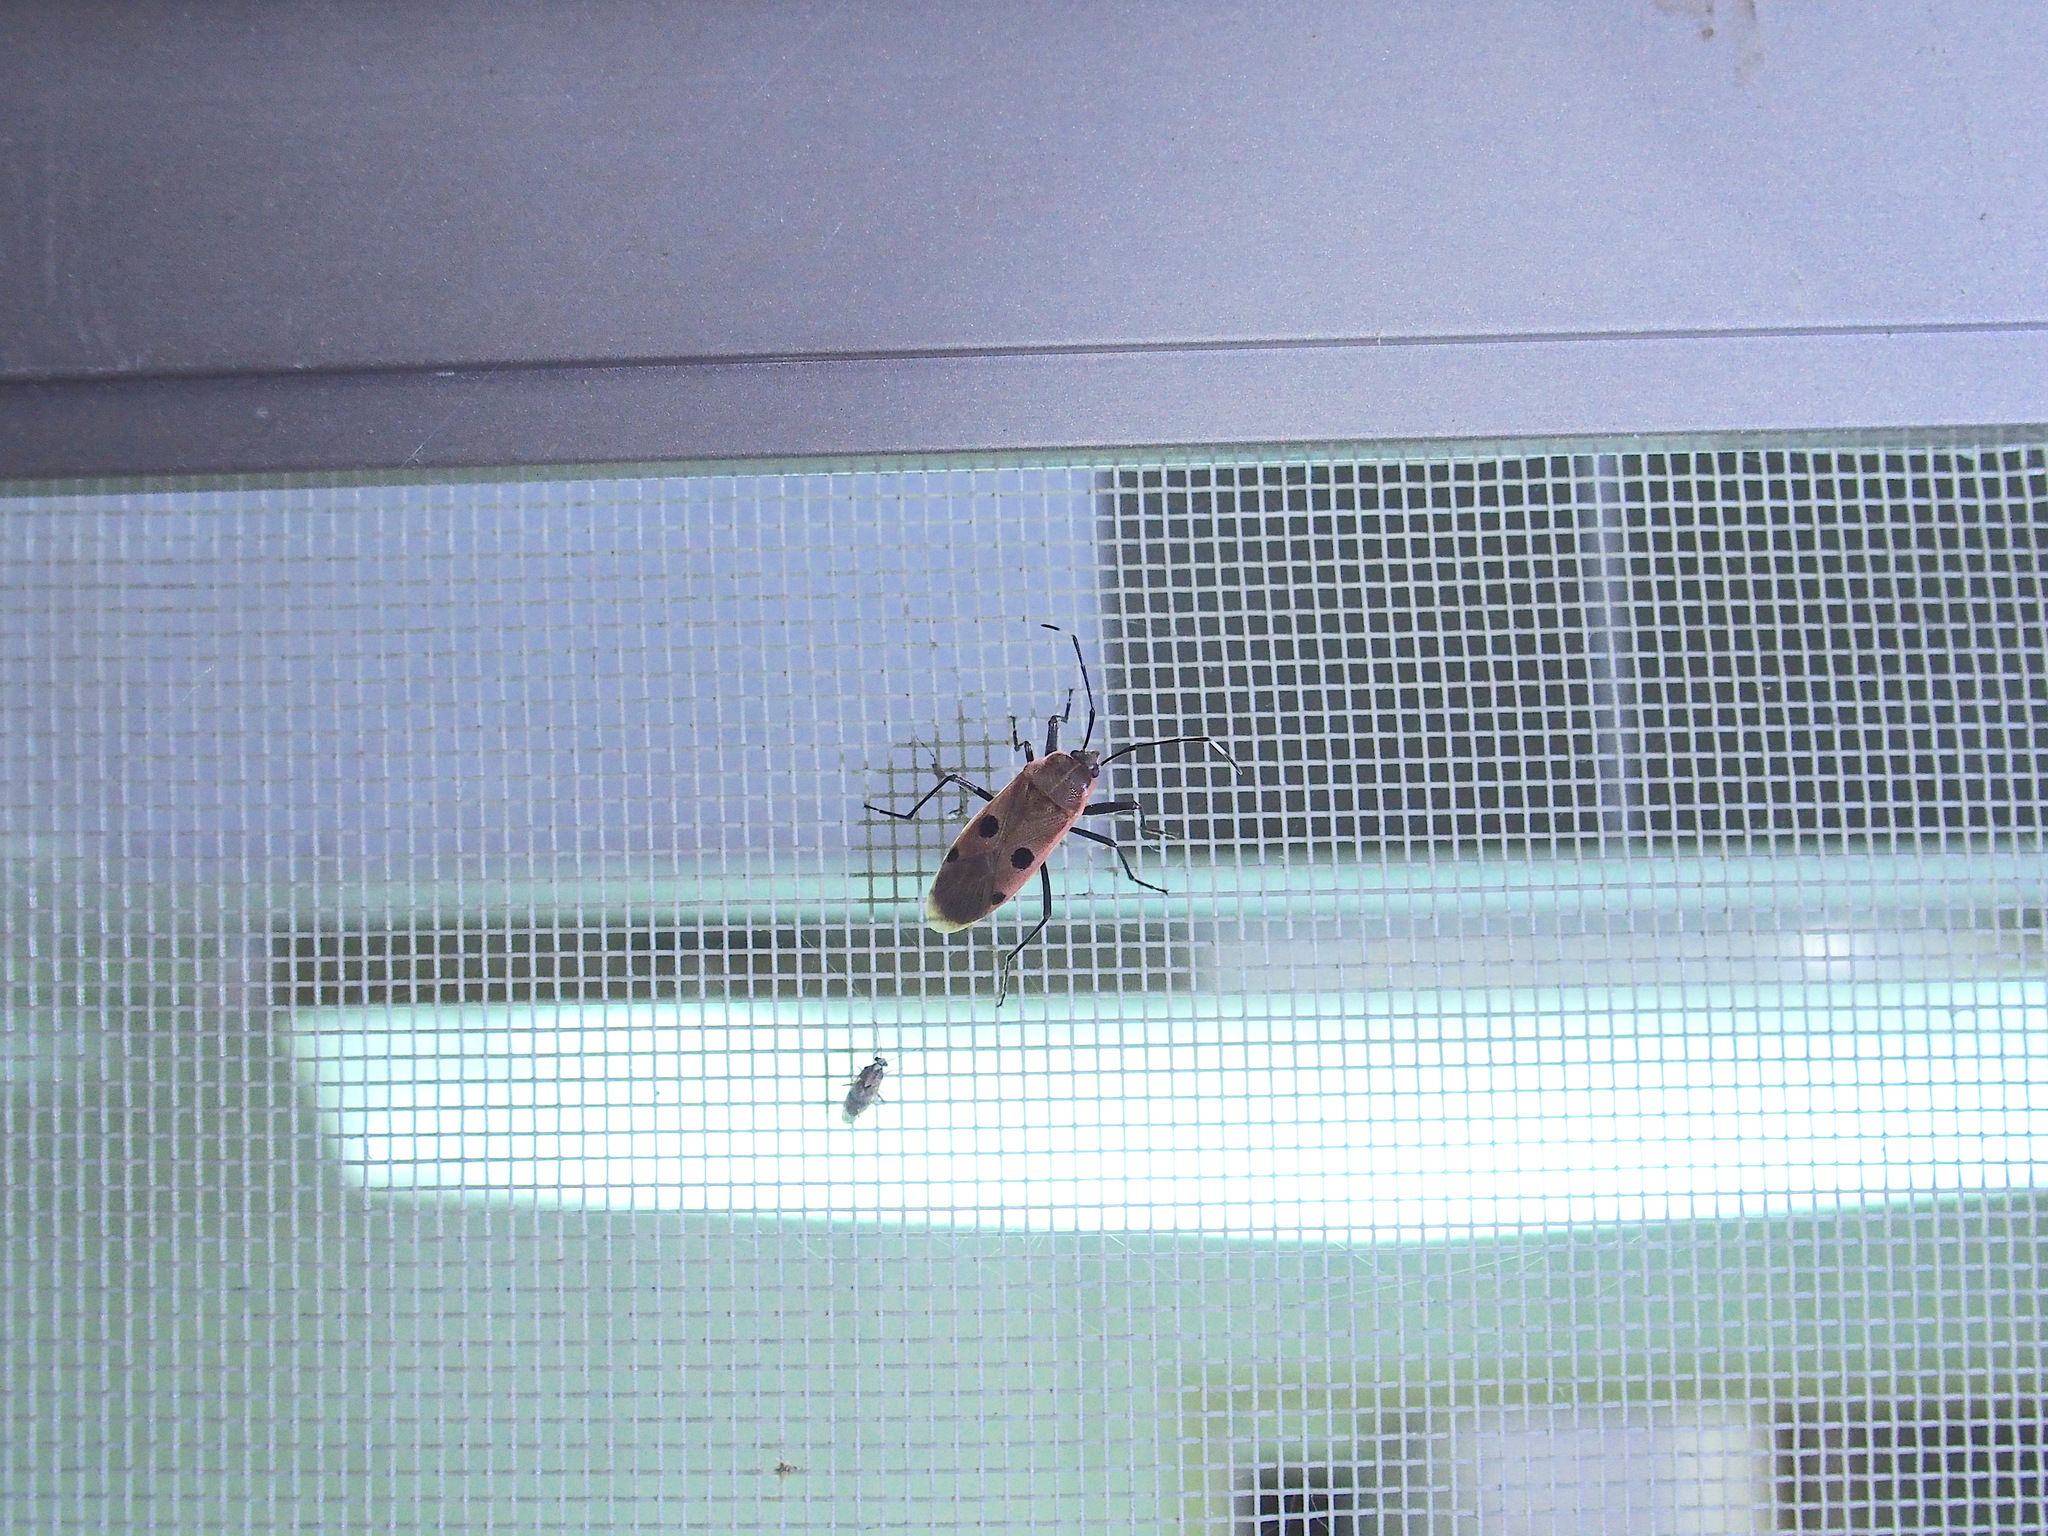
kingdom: Animalia
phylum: Arthropoda
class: Insecta
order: Hemiptera
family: Largidae
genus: Physopelta
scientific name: Physopelta quadriguttata
